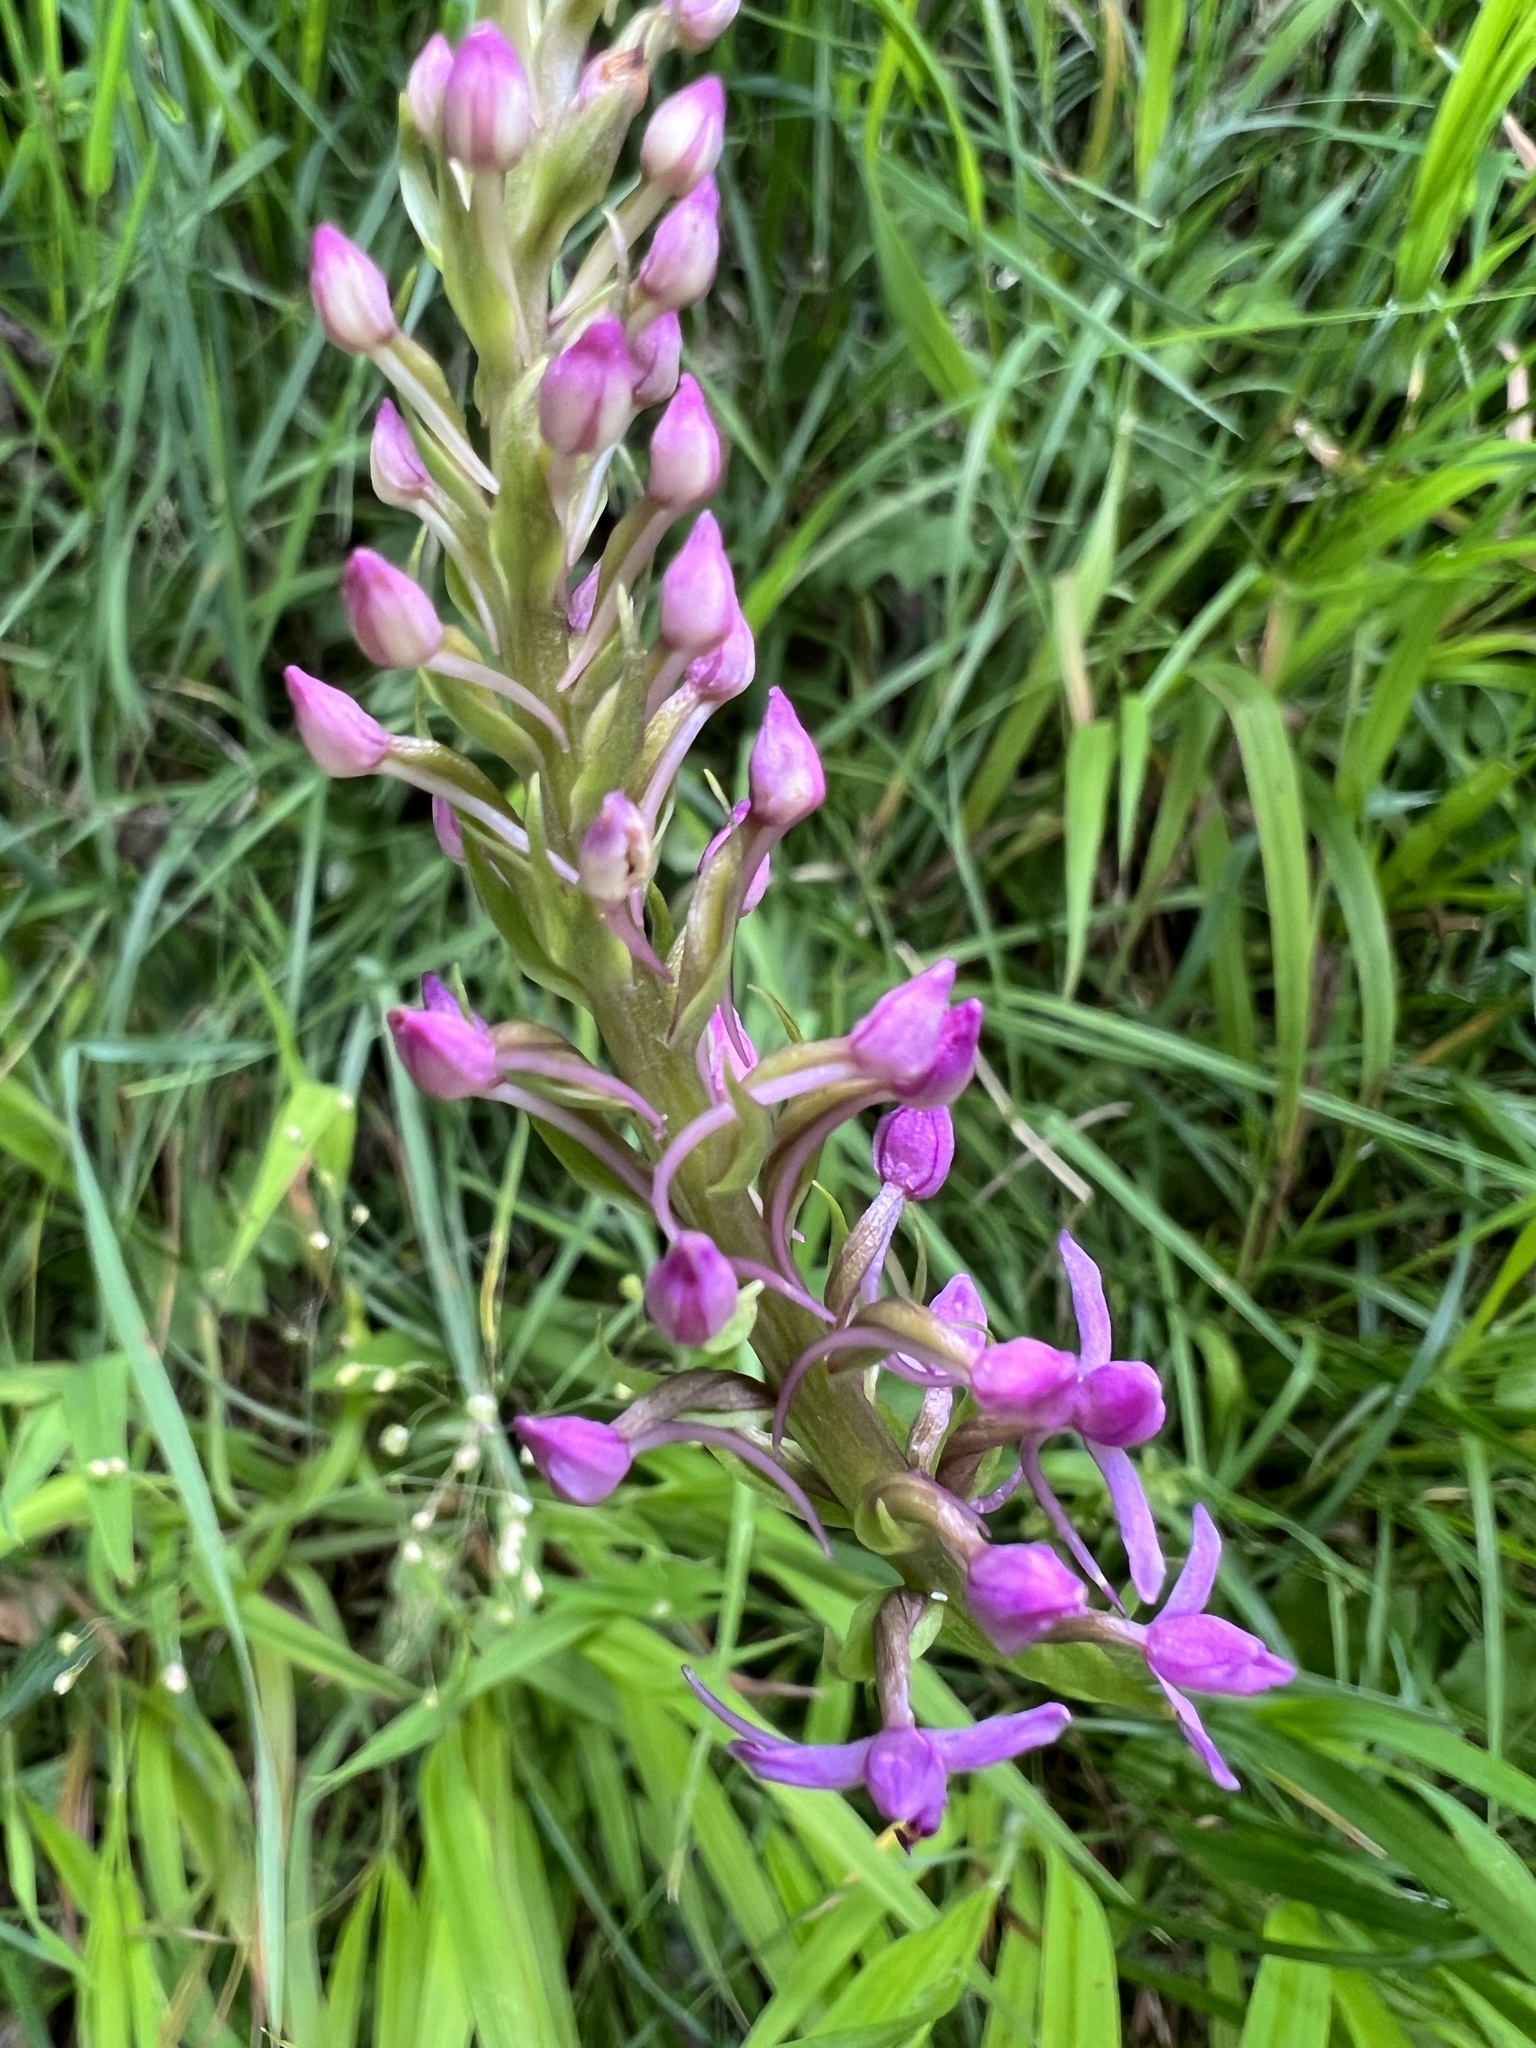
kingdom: Plantae
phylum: Tracheophyta
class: Liliopsida
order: Asparagales
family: Orchidaceae
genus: Gymnadenia
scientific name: Gymnadenia conopsea
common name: Fragrant orchid
